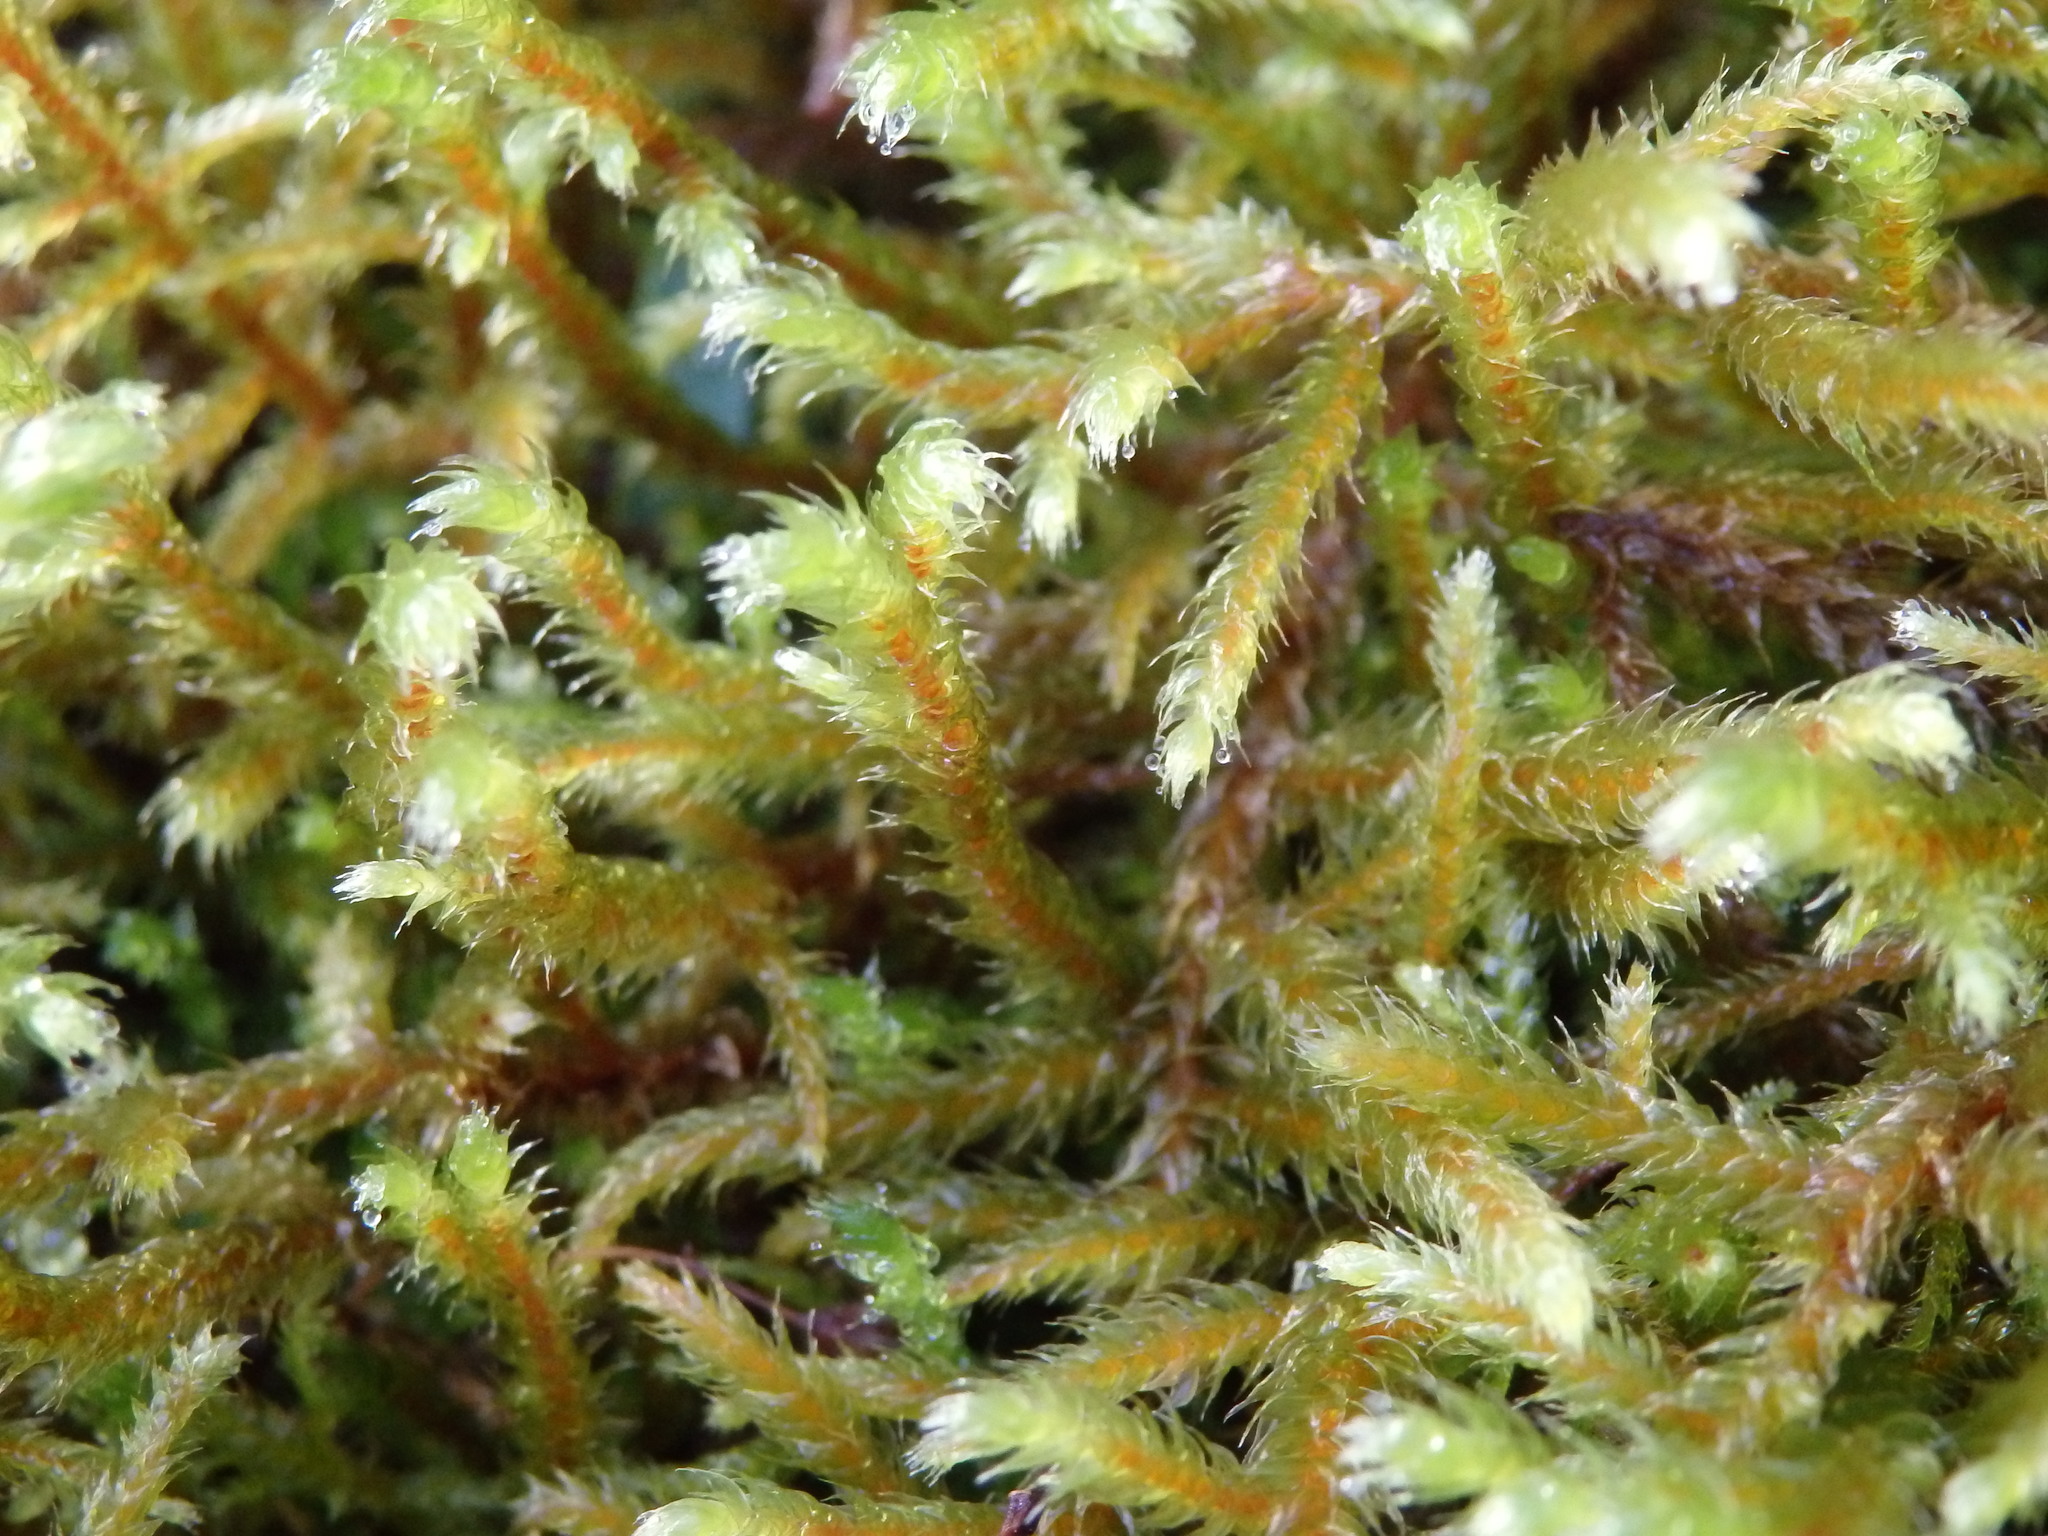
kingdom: Plantae
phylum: Bryophyta
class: Bryopsida
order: Hypnales
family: Antitrichiaceae
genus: Antitrichia
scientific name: Antitrichia curtipendula
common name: Pendulous wing-moss
